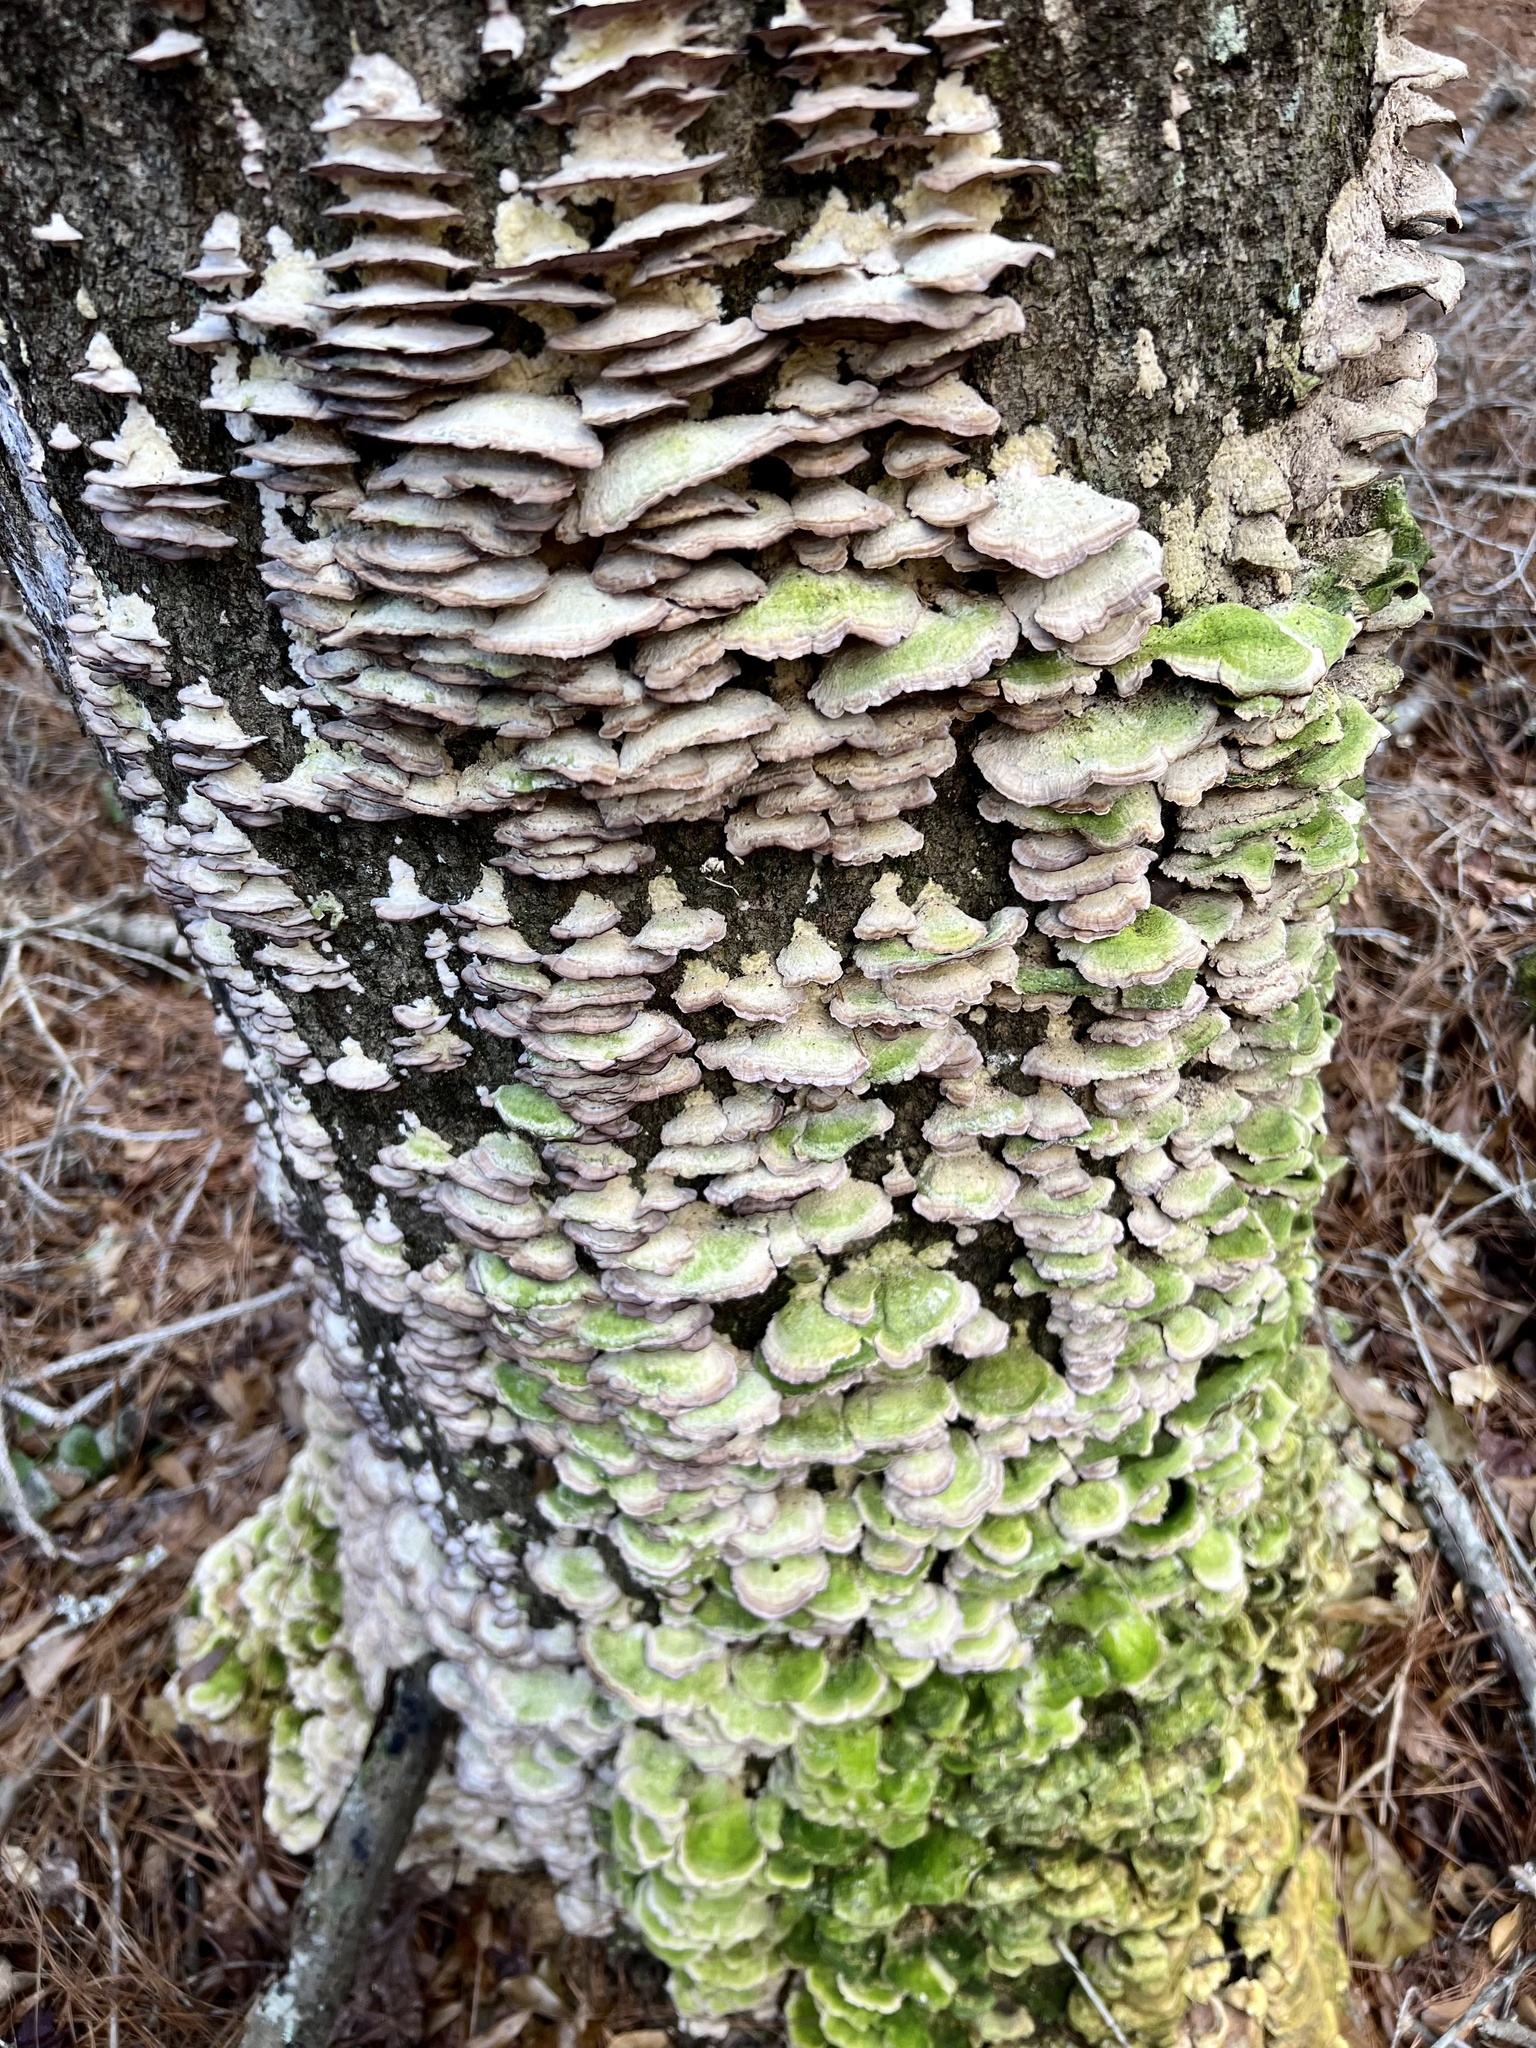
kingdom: Fungi
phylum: Basidiomycota
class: Agaricomycetes
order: Hymenochaetales
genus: Trichaptum
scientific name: Trichaptum biforme
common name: Violet-toothed polypore
